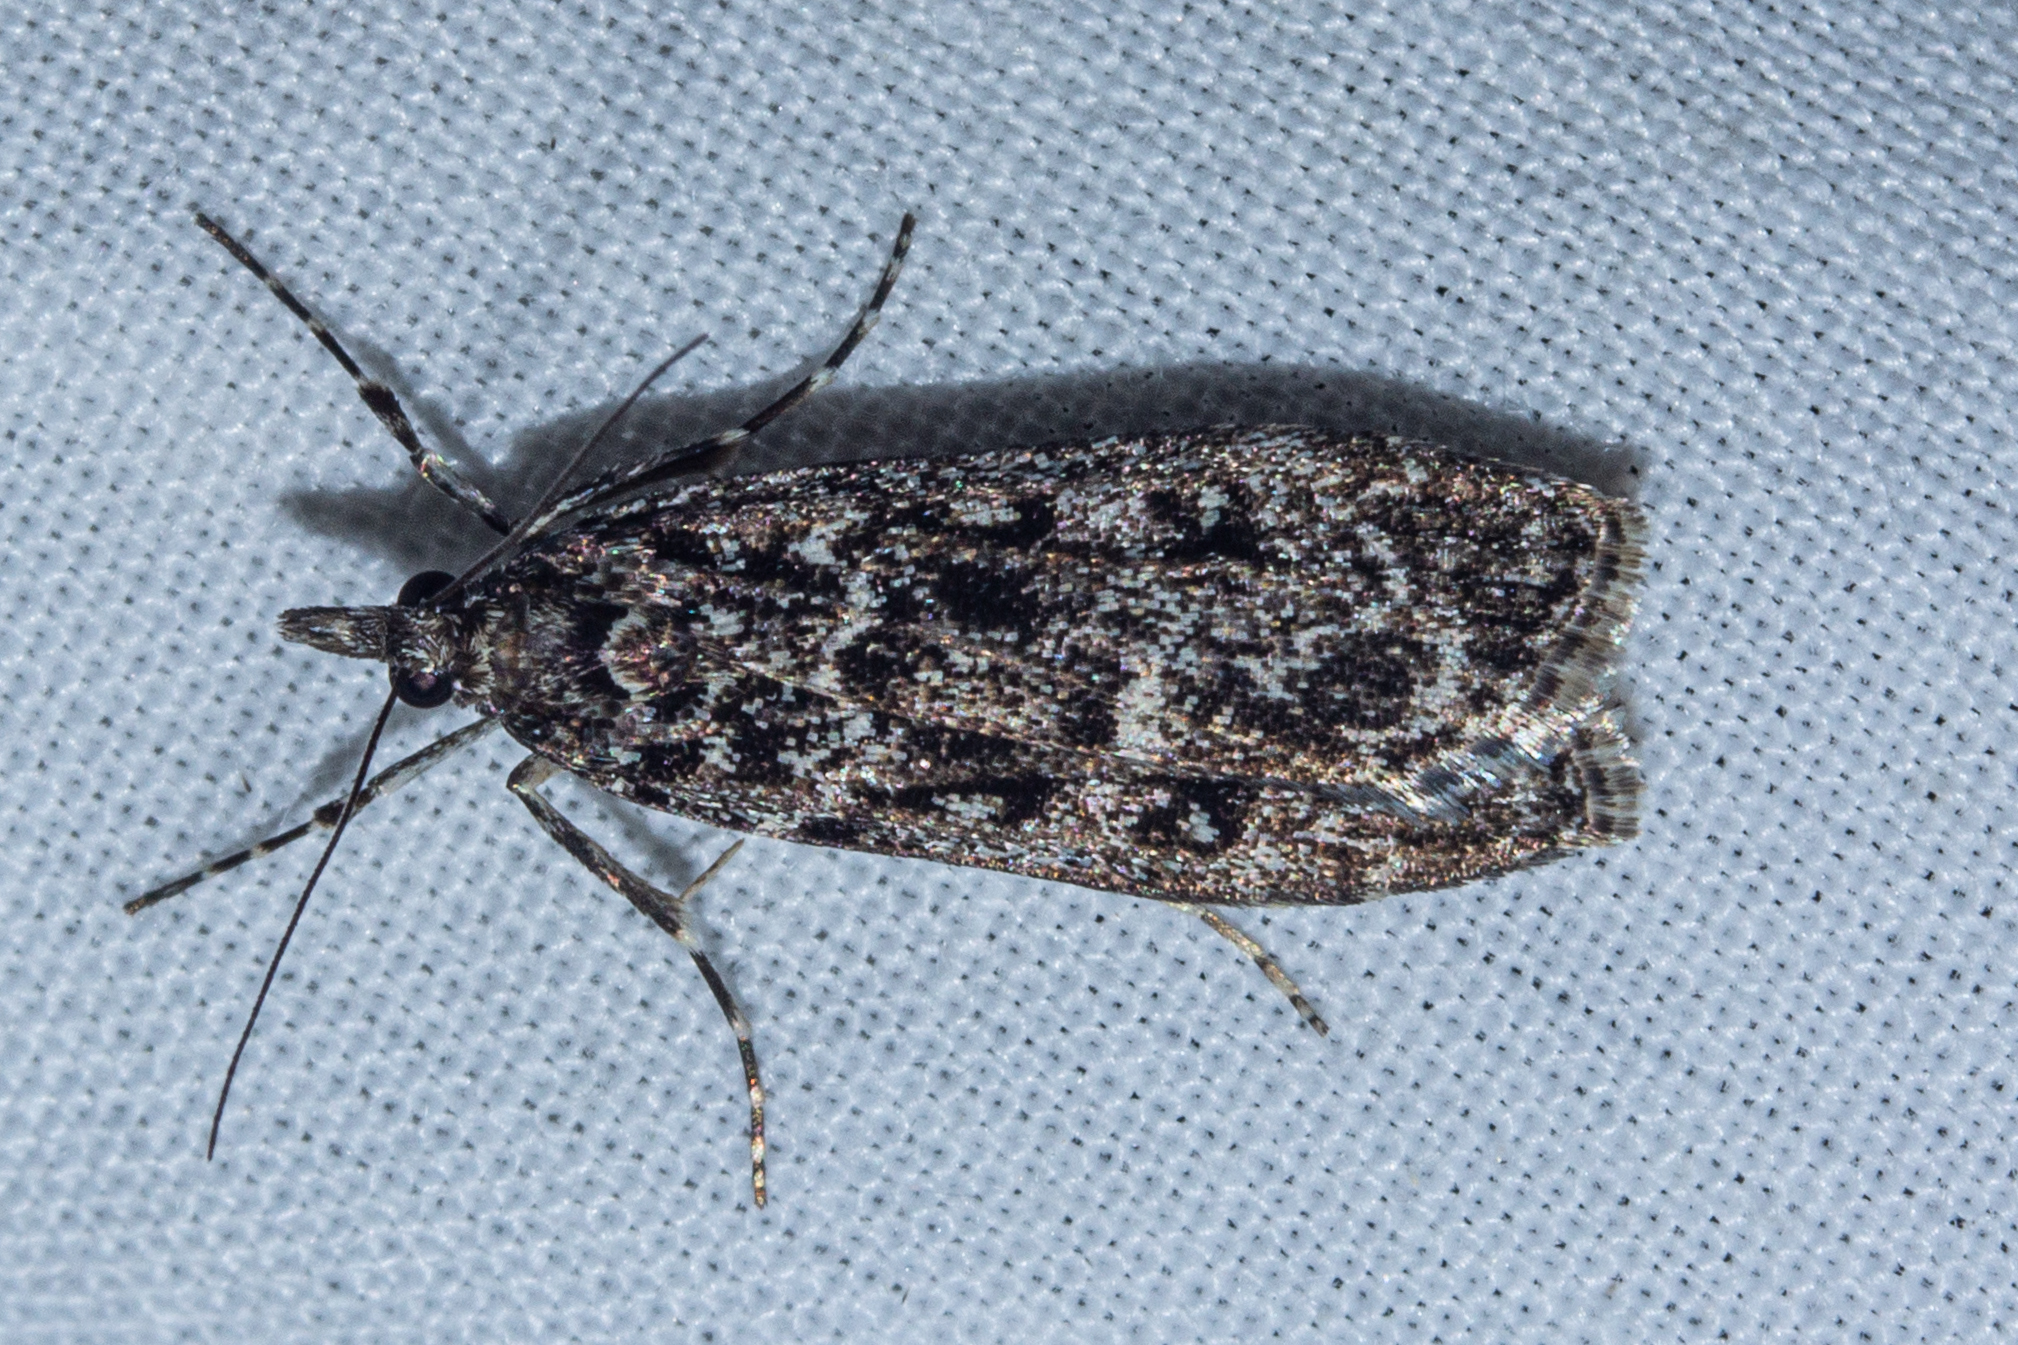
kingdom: Animalia
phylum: Arthropoda
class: Insecta
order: Lepidoptera
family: Crambidae
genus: Eudonia
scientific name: Eudonia philerga
